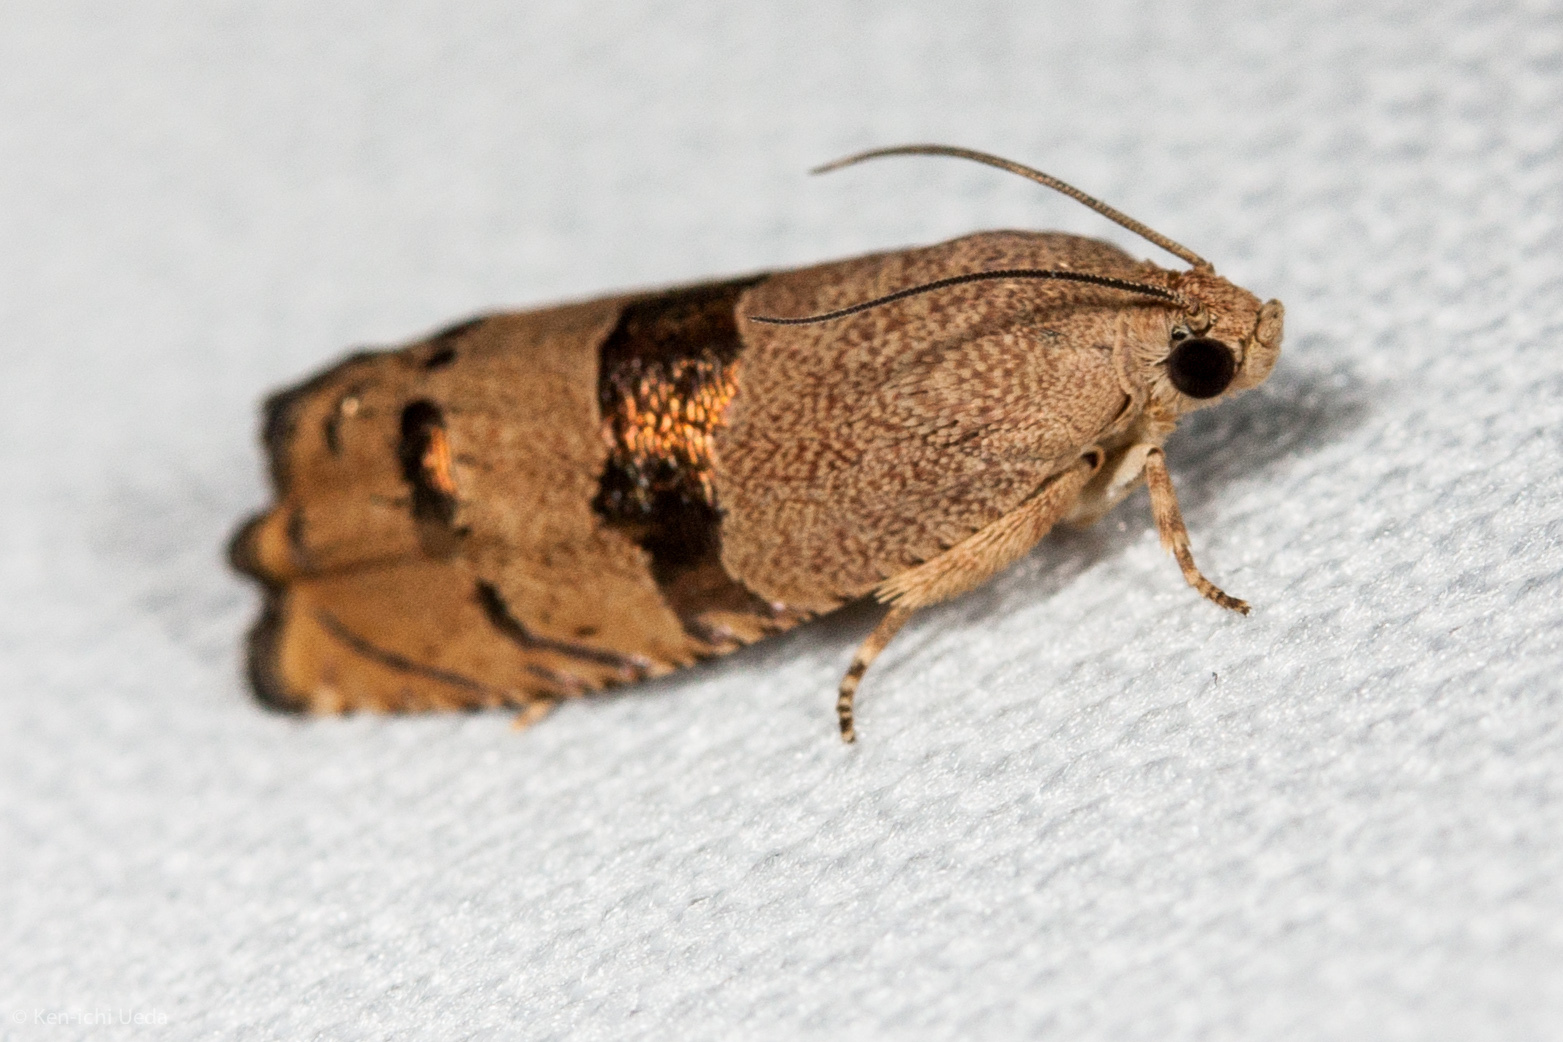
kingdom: Animalia
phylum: Arthropoda
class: Insecta
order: Lepidoptera
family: Tortricidae
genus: Cydia
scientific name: Cydia latiferreana
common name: Filbertworm moth
